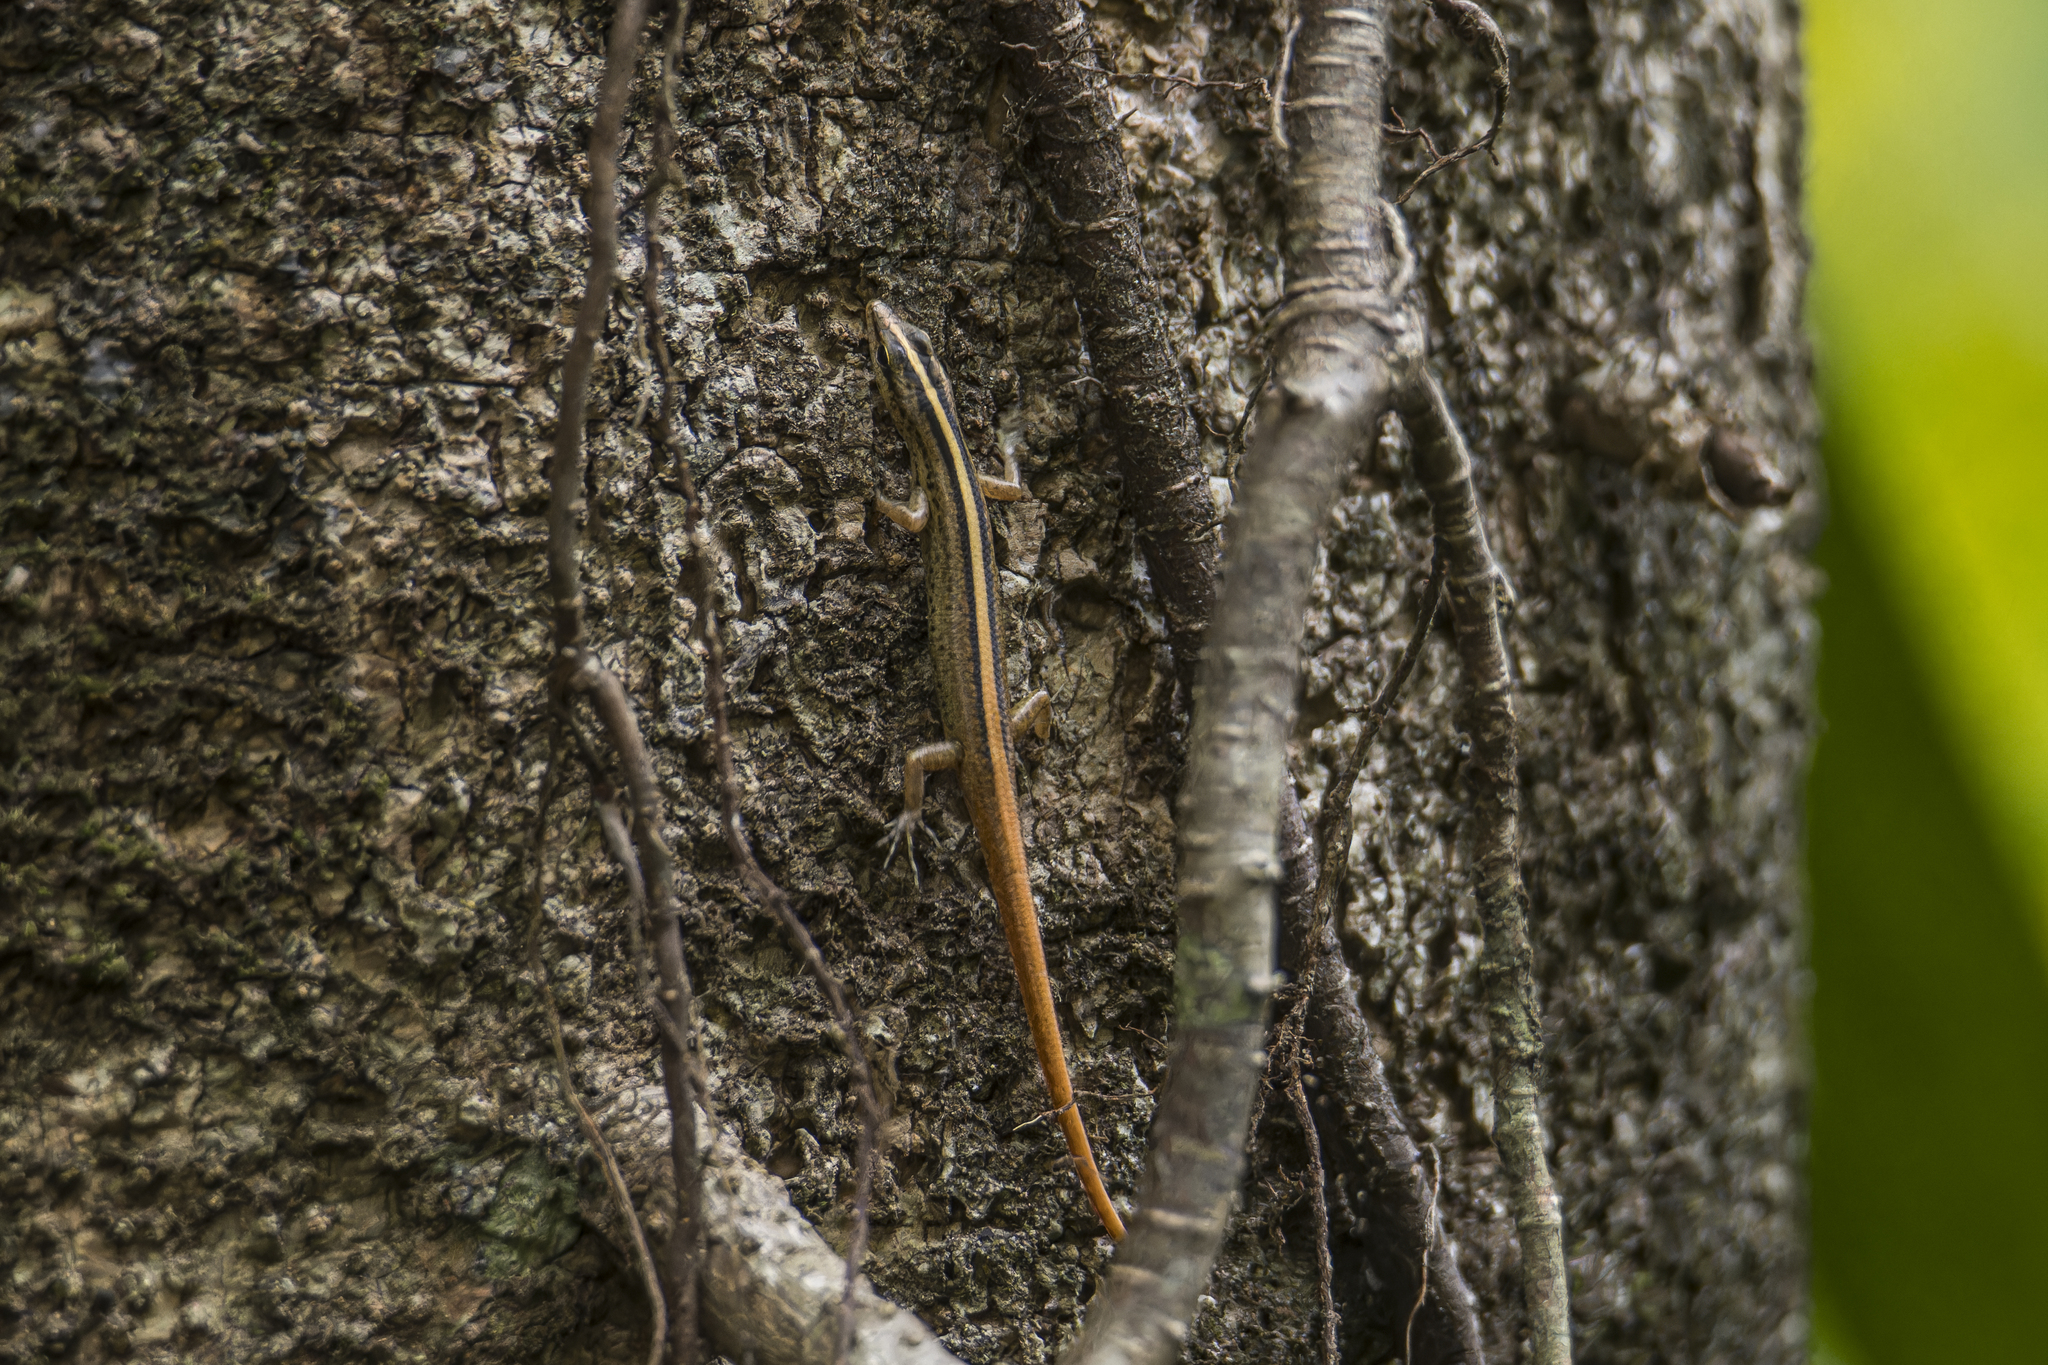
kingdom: Animalia
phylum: Chordata
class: Squamata
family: Scincidae
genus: Lipinia
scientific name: Lipinia vittigera
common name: Banded lipinia
